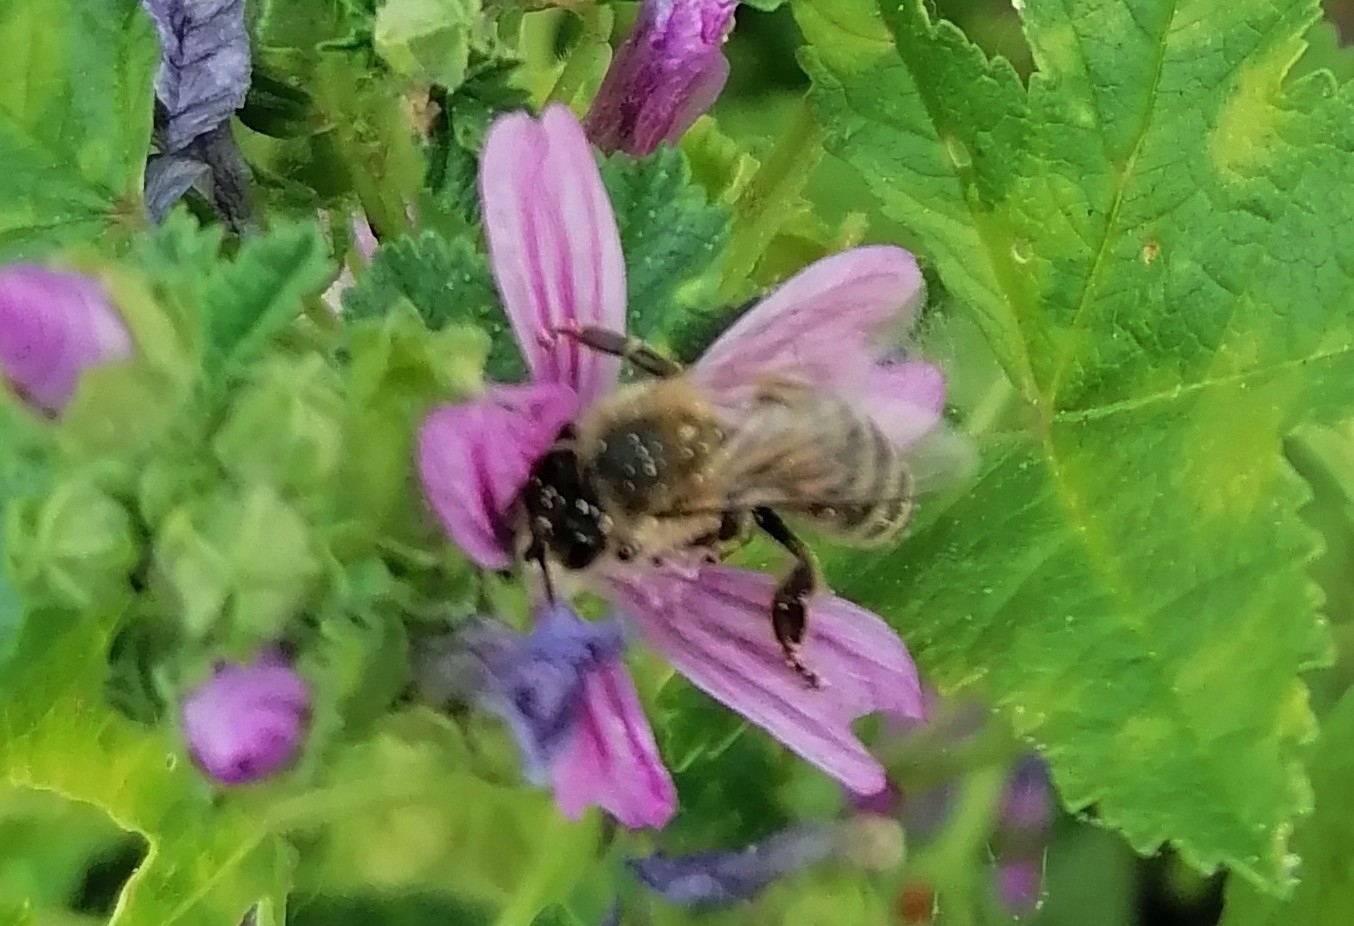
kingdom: Animalia
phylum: Arthropoda
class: Insecta
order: Hymenoptera
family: Apidae
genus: Apis
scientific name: Apis mellifera
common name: Honey bee
